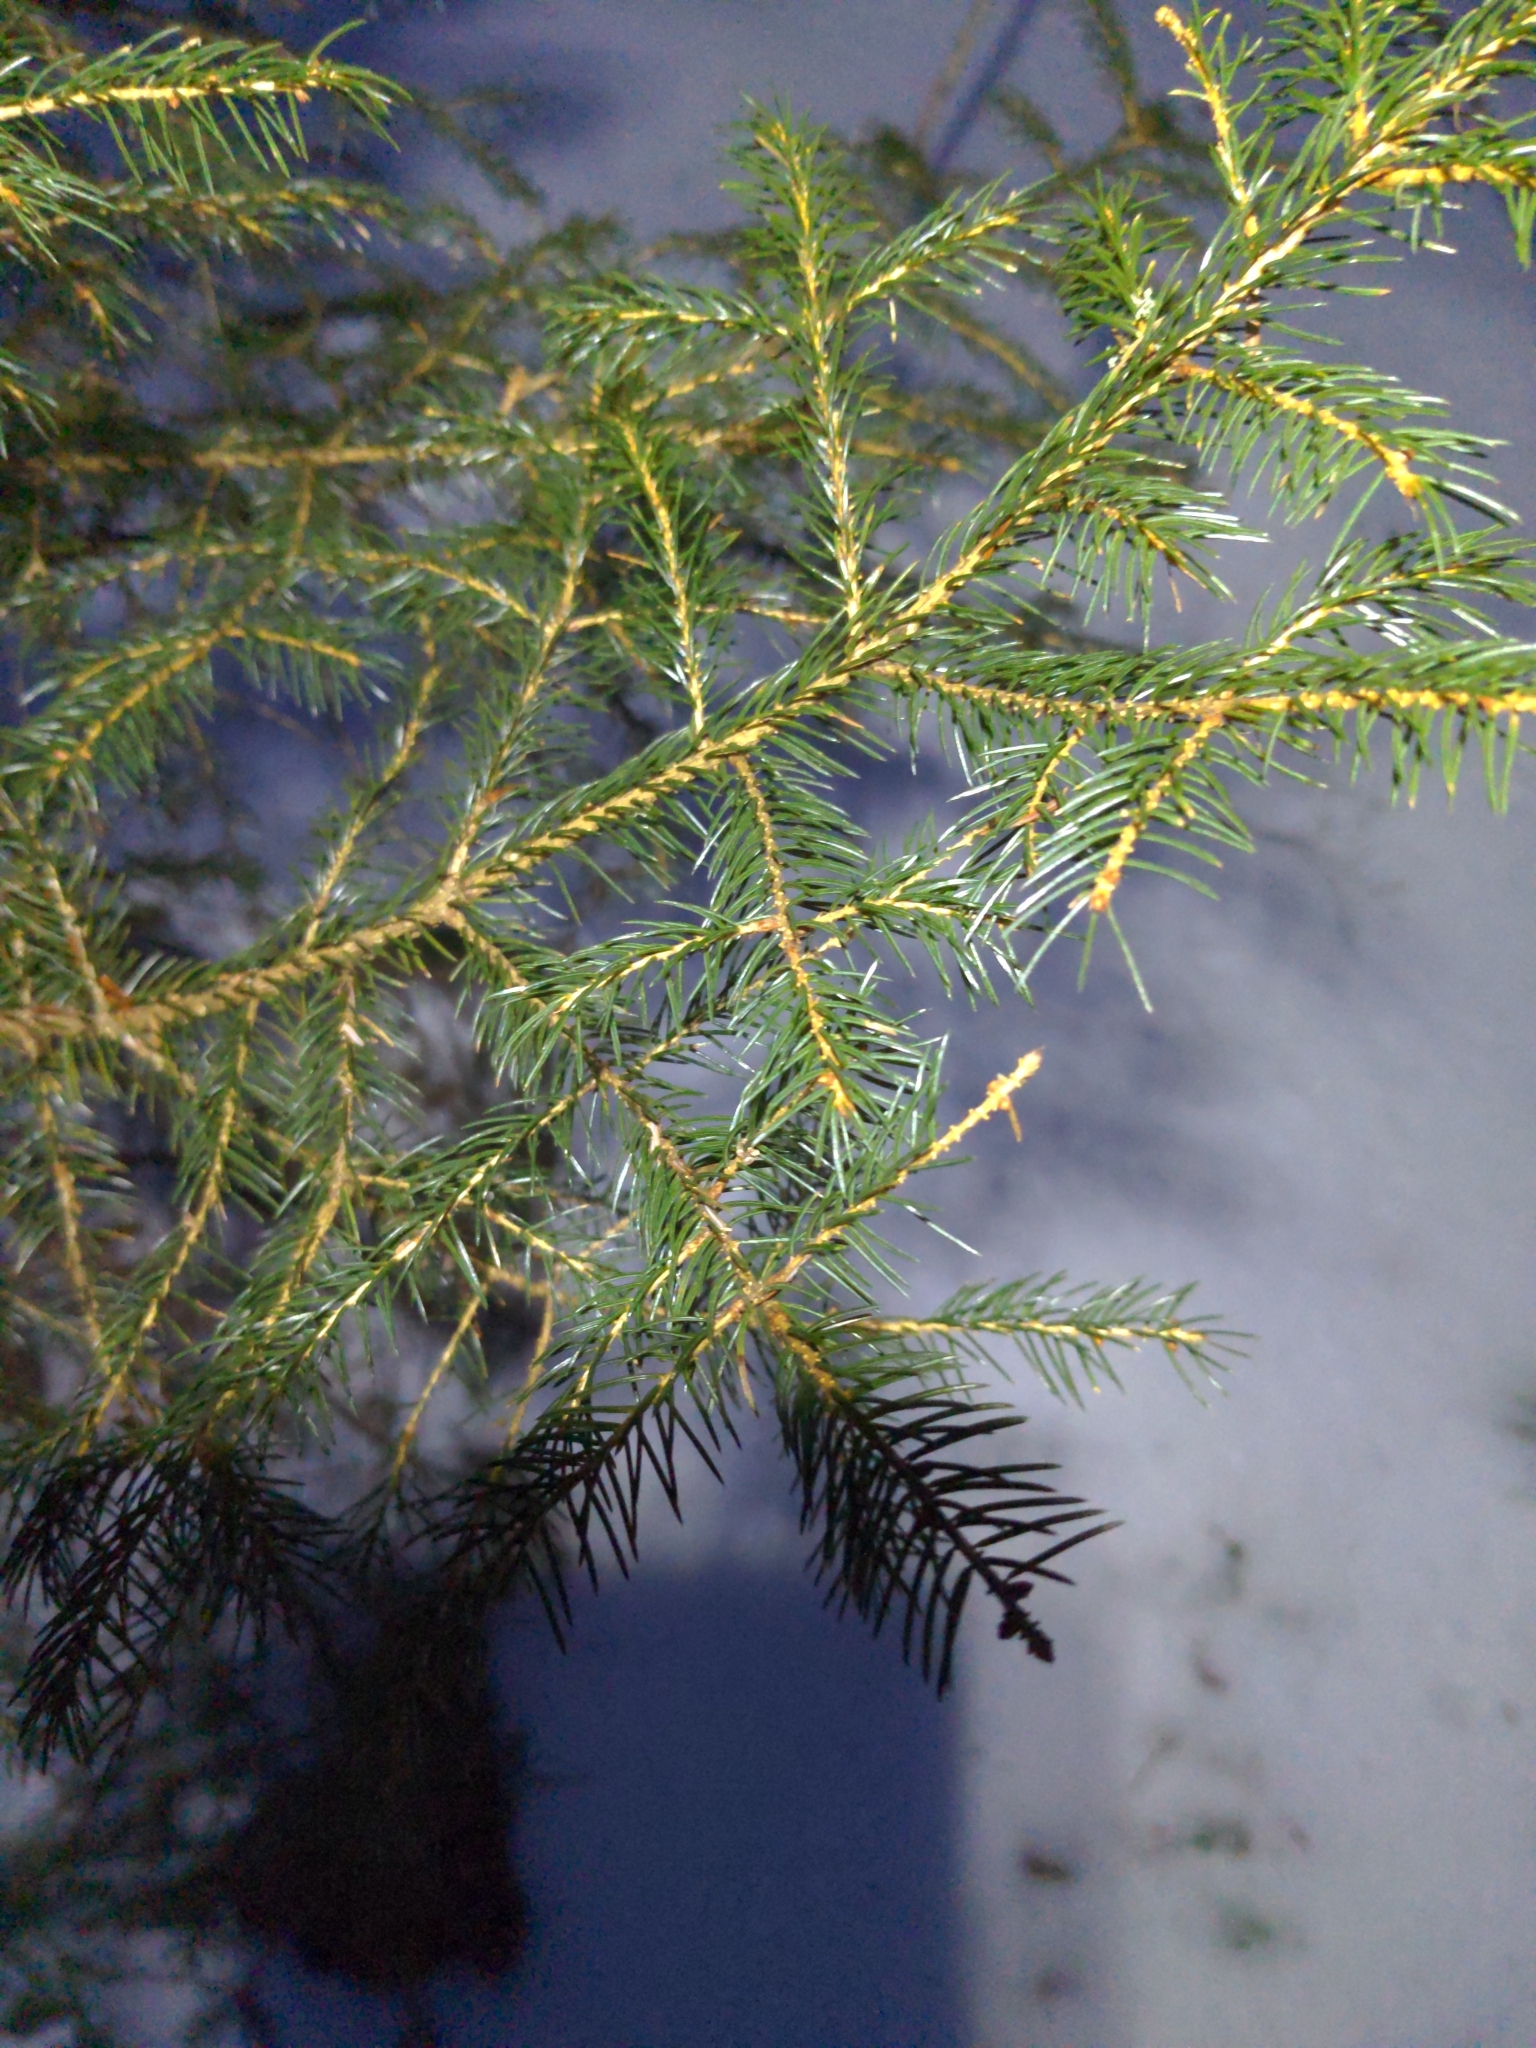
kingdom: Plantae
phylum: Tracheophyta
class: Pinopsida
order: Pinales
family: Pinaceae
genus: Picea
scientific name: Picea rubens
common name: Red spruce
